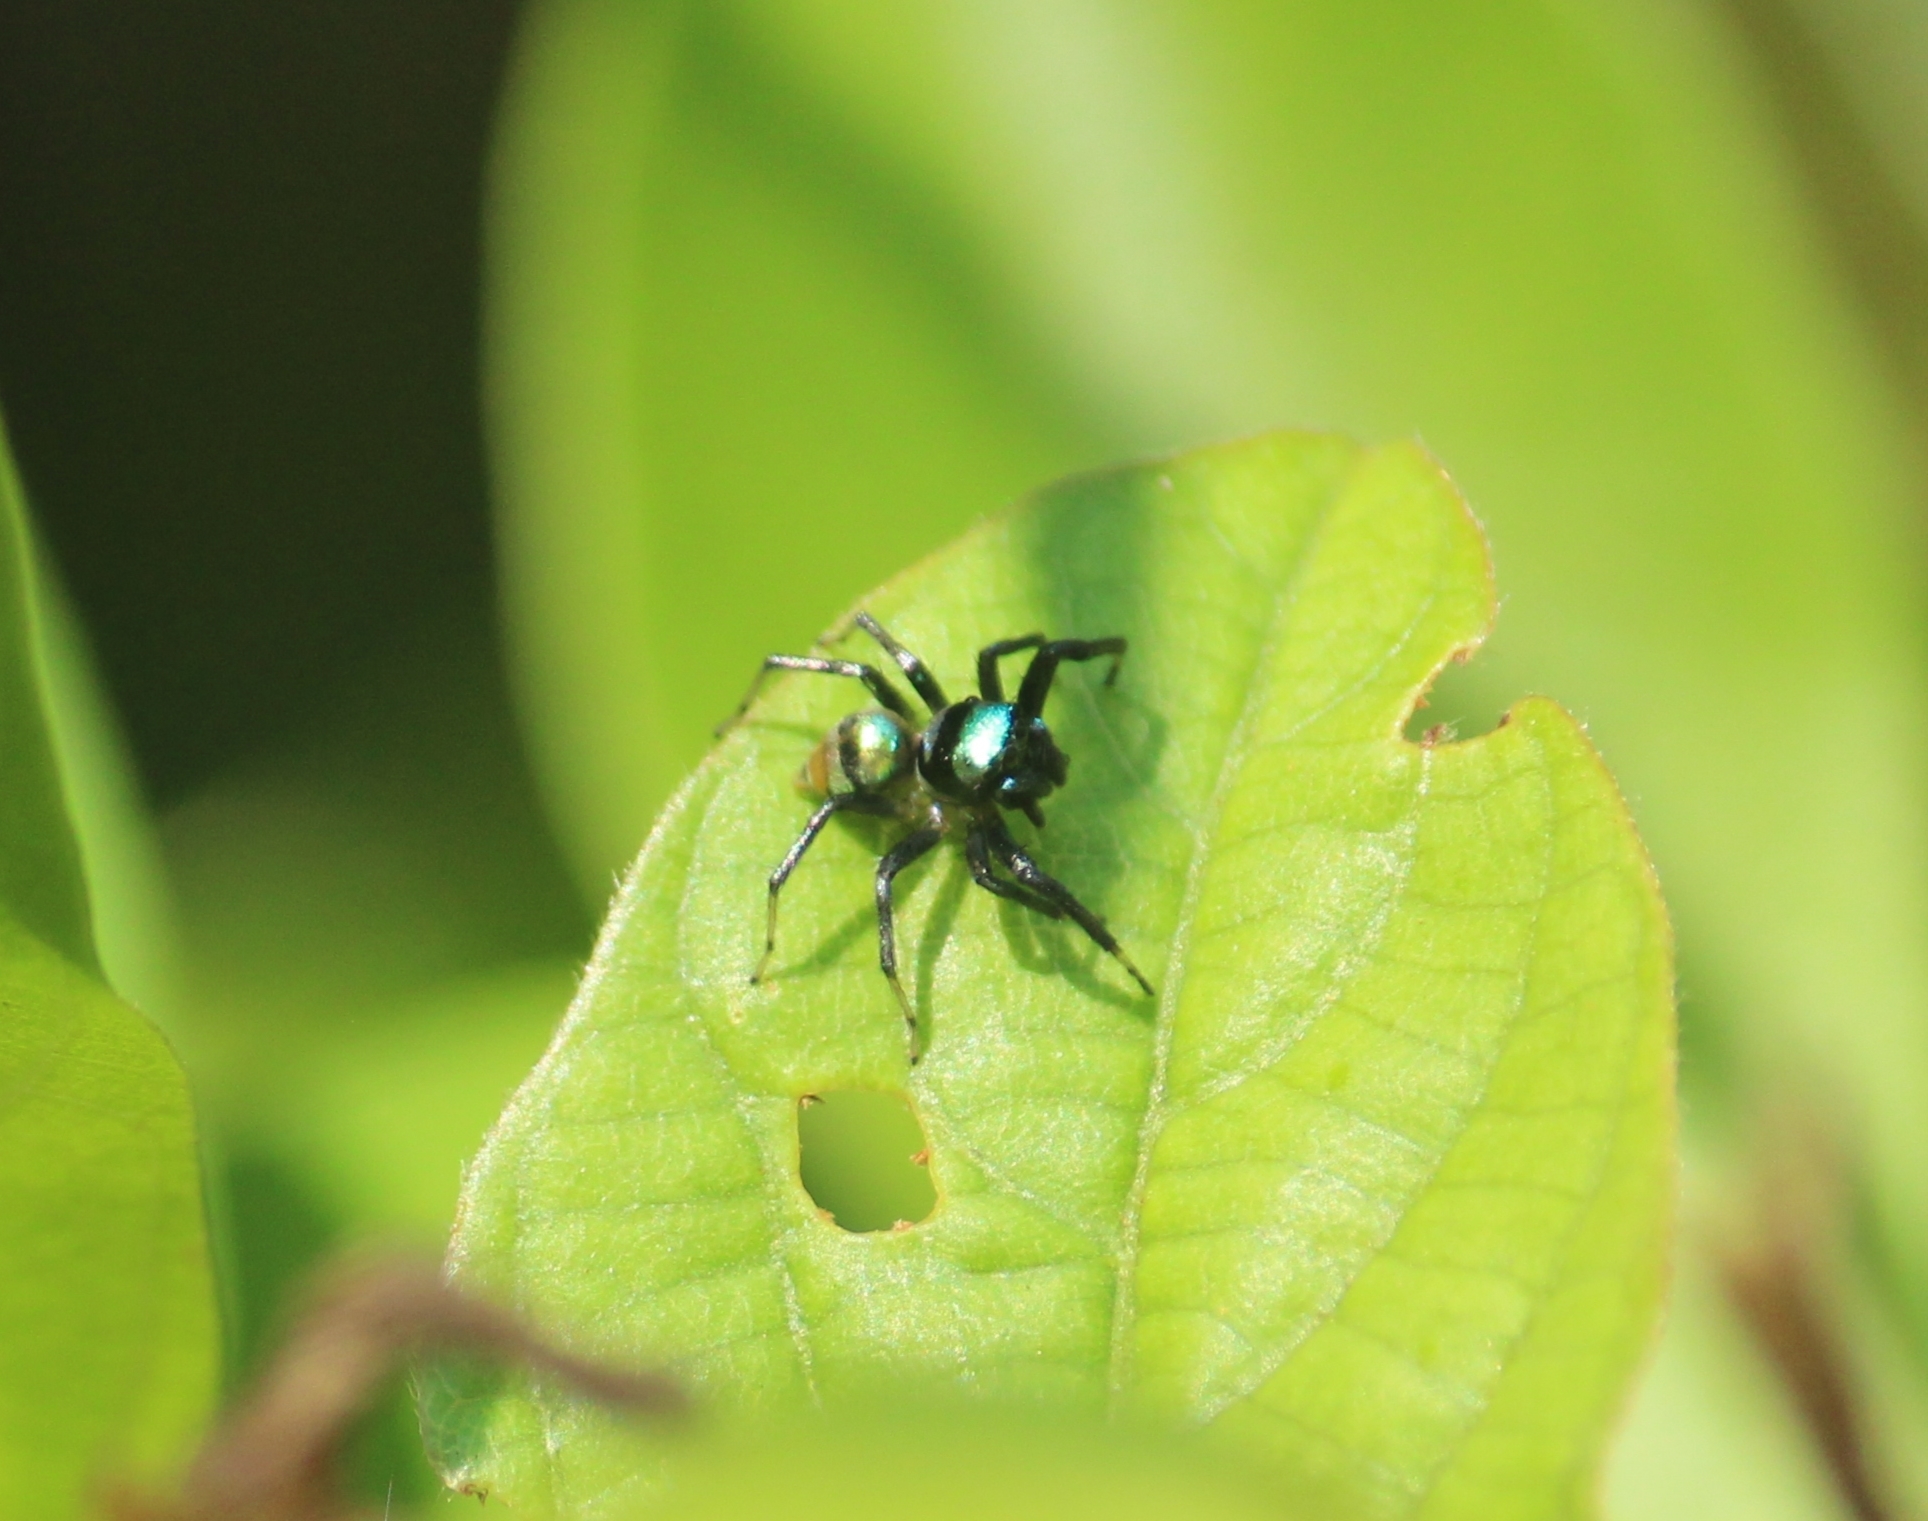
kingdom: Animalia
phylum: Arthropoda
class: Arachnida
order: Araneae
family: Salticidae
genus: Phintella
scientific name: Phintella vittata
